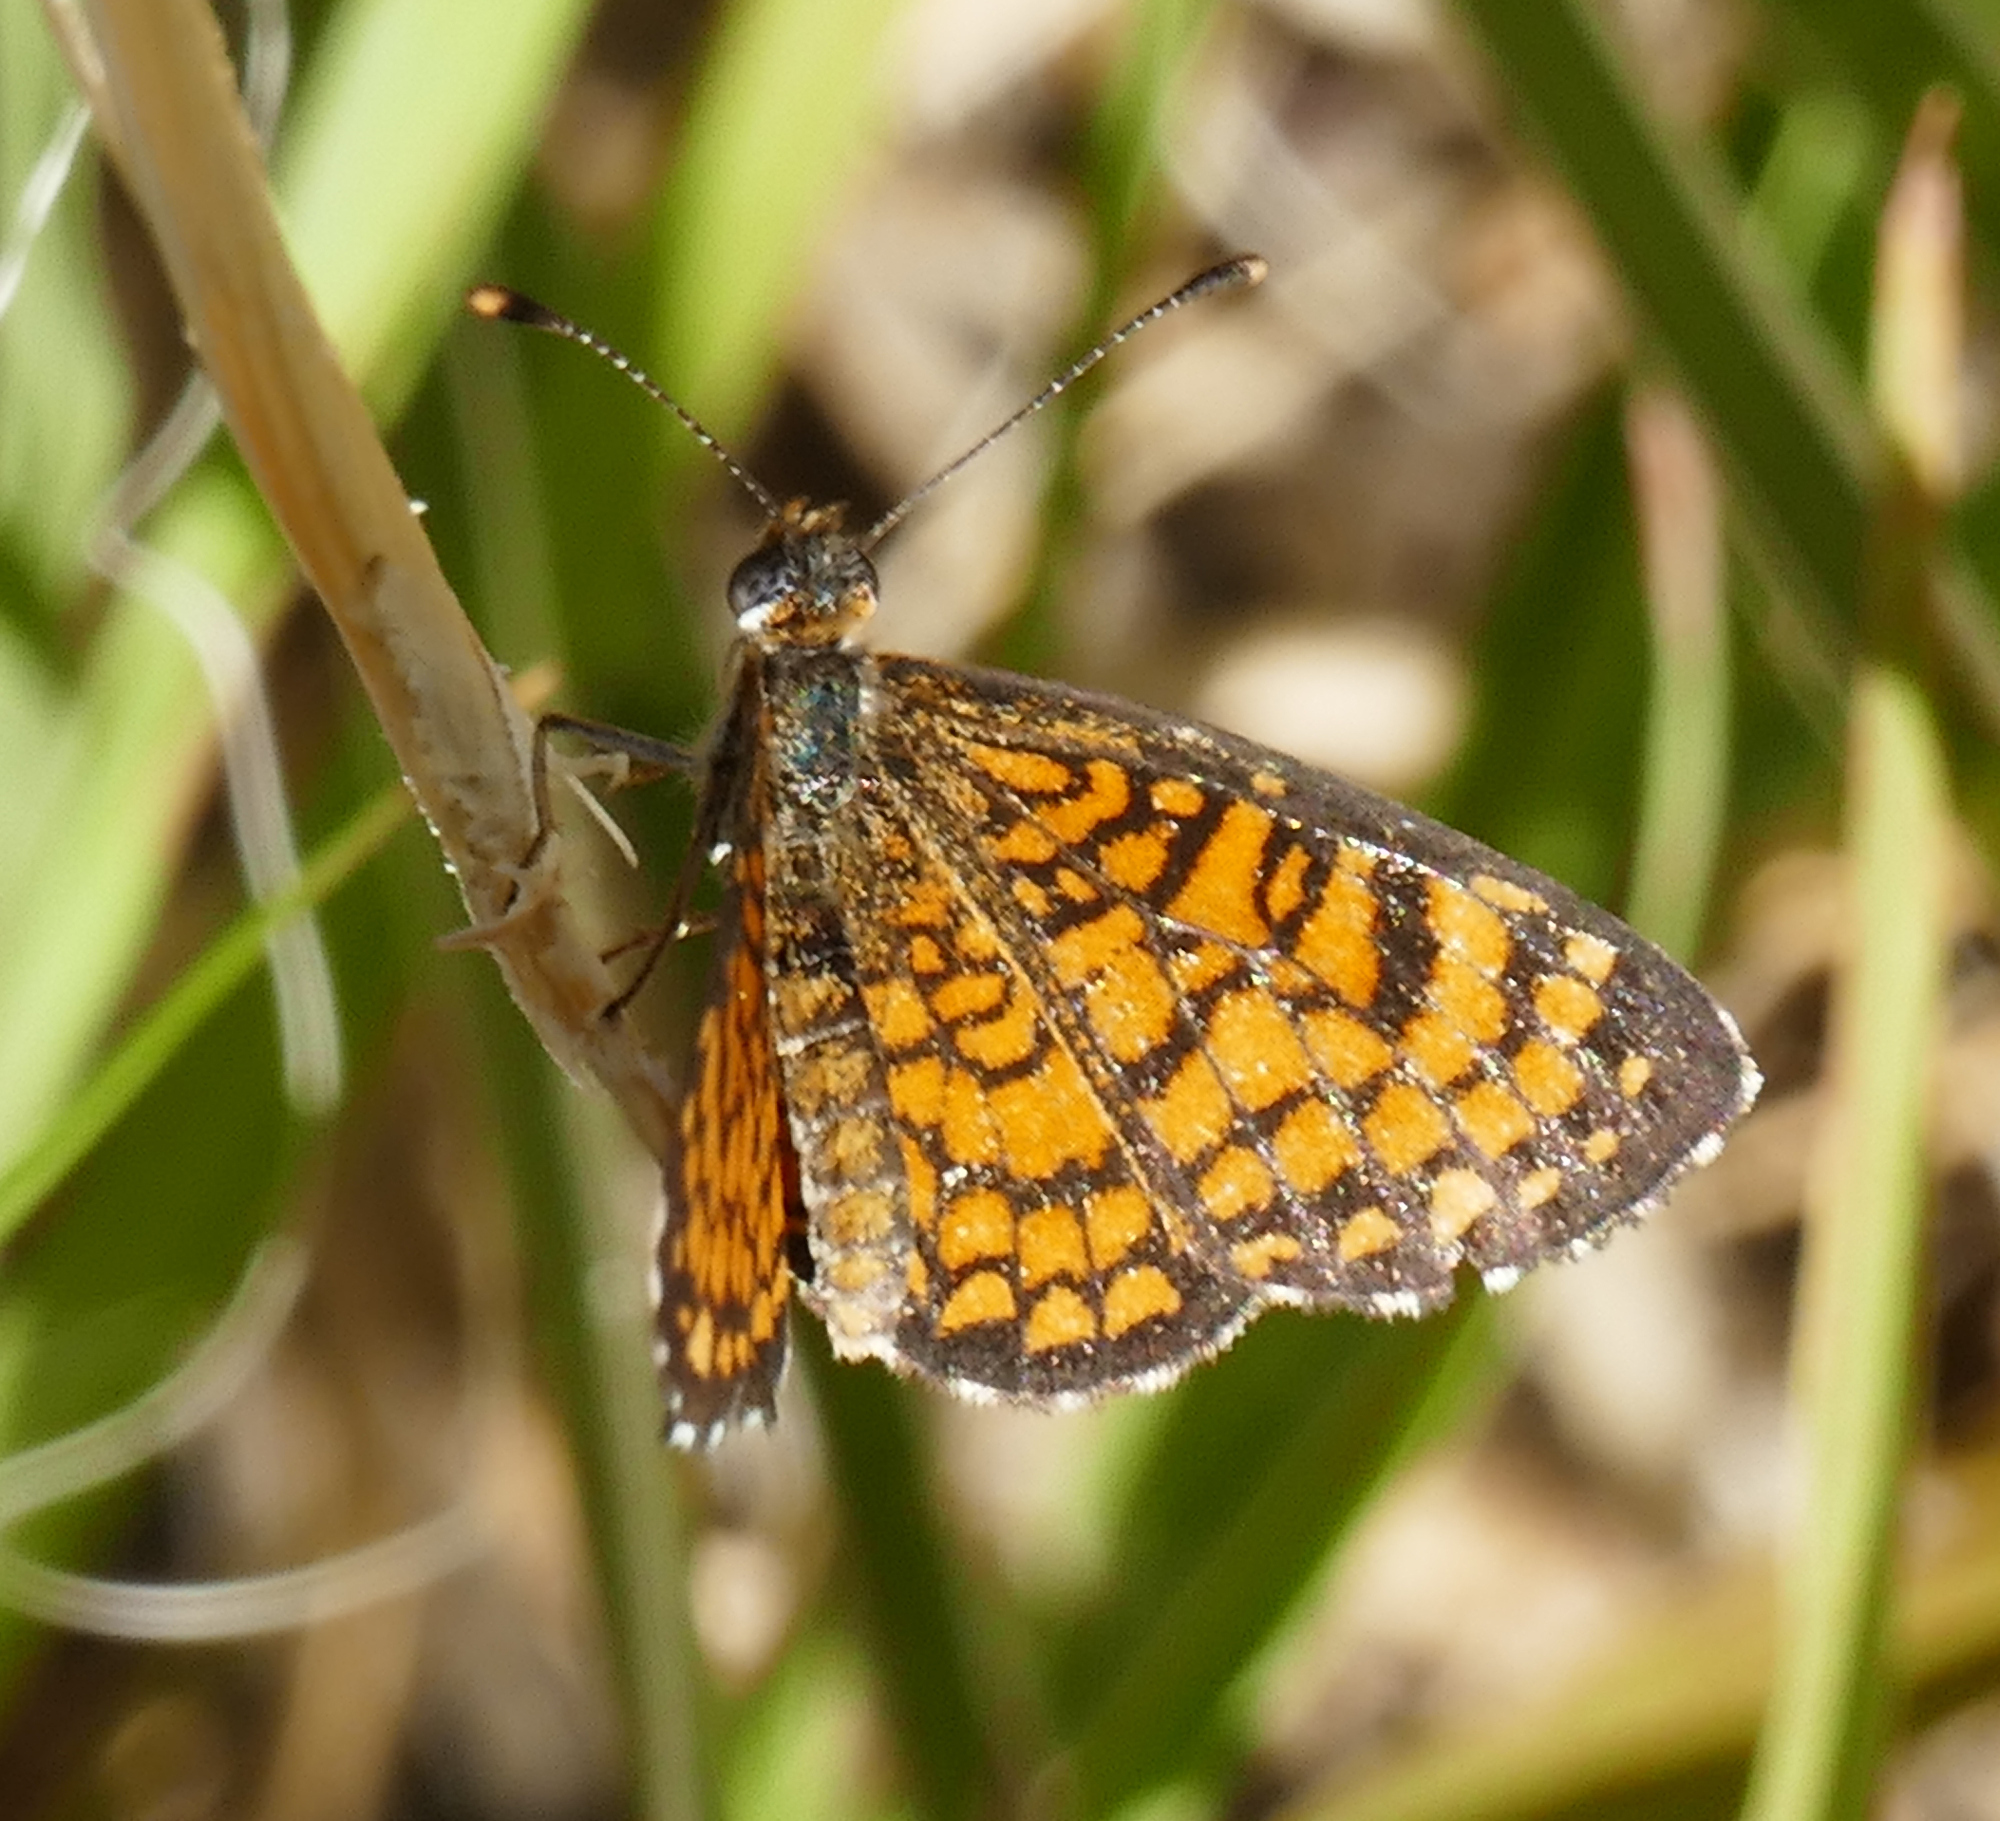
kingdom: Animalia
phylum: Arthropoda
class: Insecta
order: Lepidoptera
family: Nymphalidae
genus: Texola
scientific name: Texola
